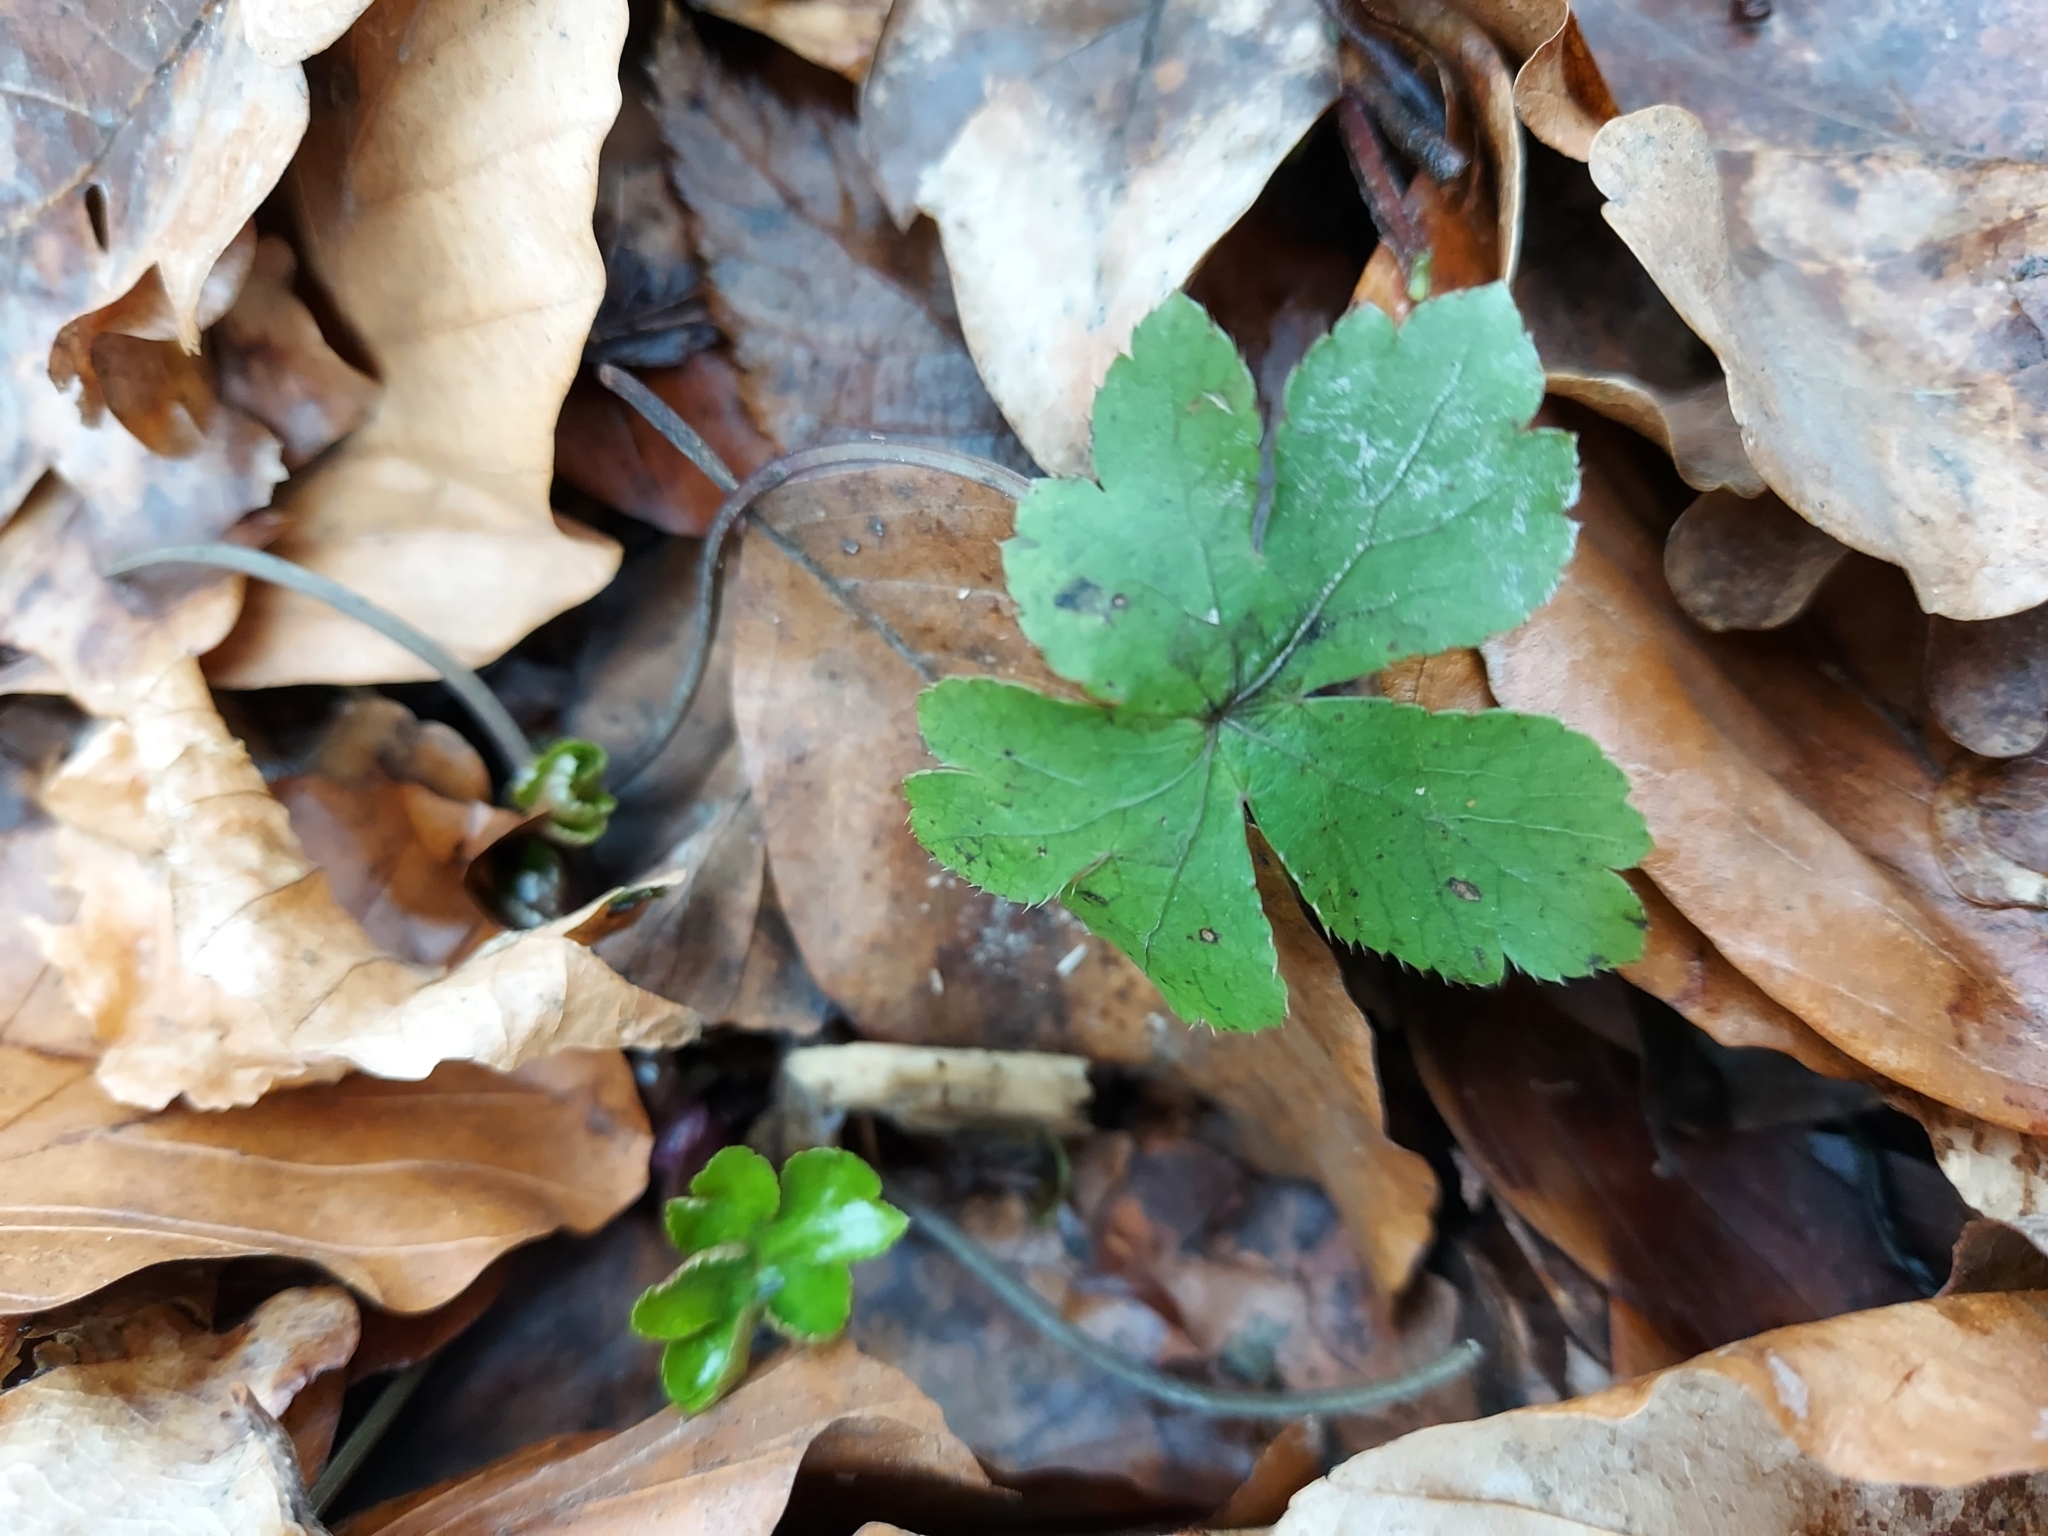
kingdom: Plantae
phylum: Tracheophyta
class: Magnoliopsida
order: Apiales
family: Apiaceae
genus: Sanicula
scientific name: Sanicula europaea
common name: Sanicle
